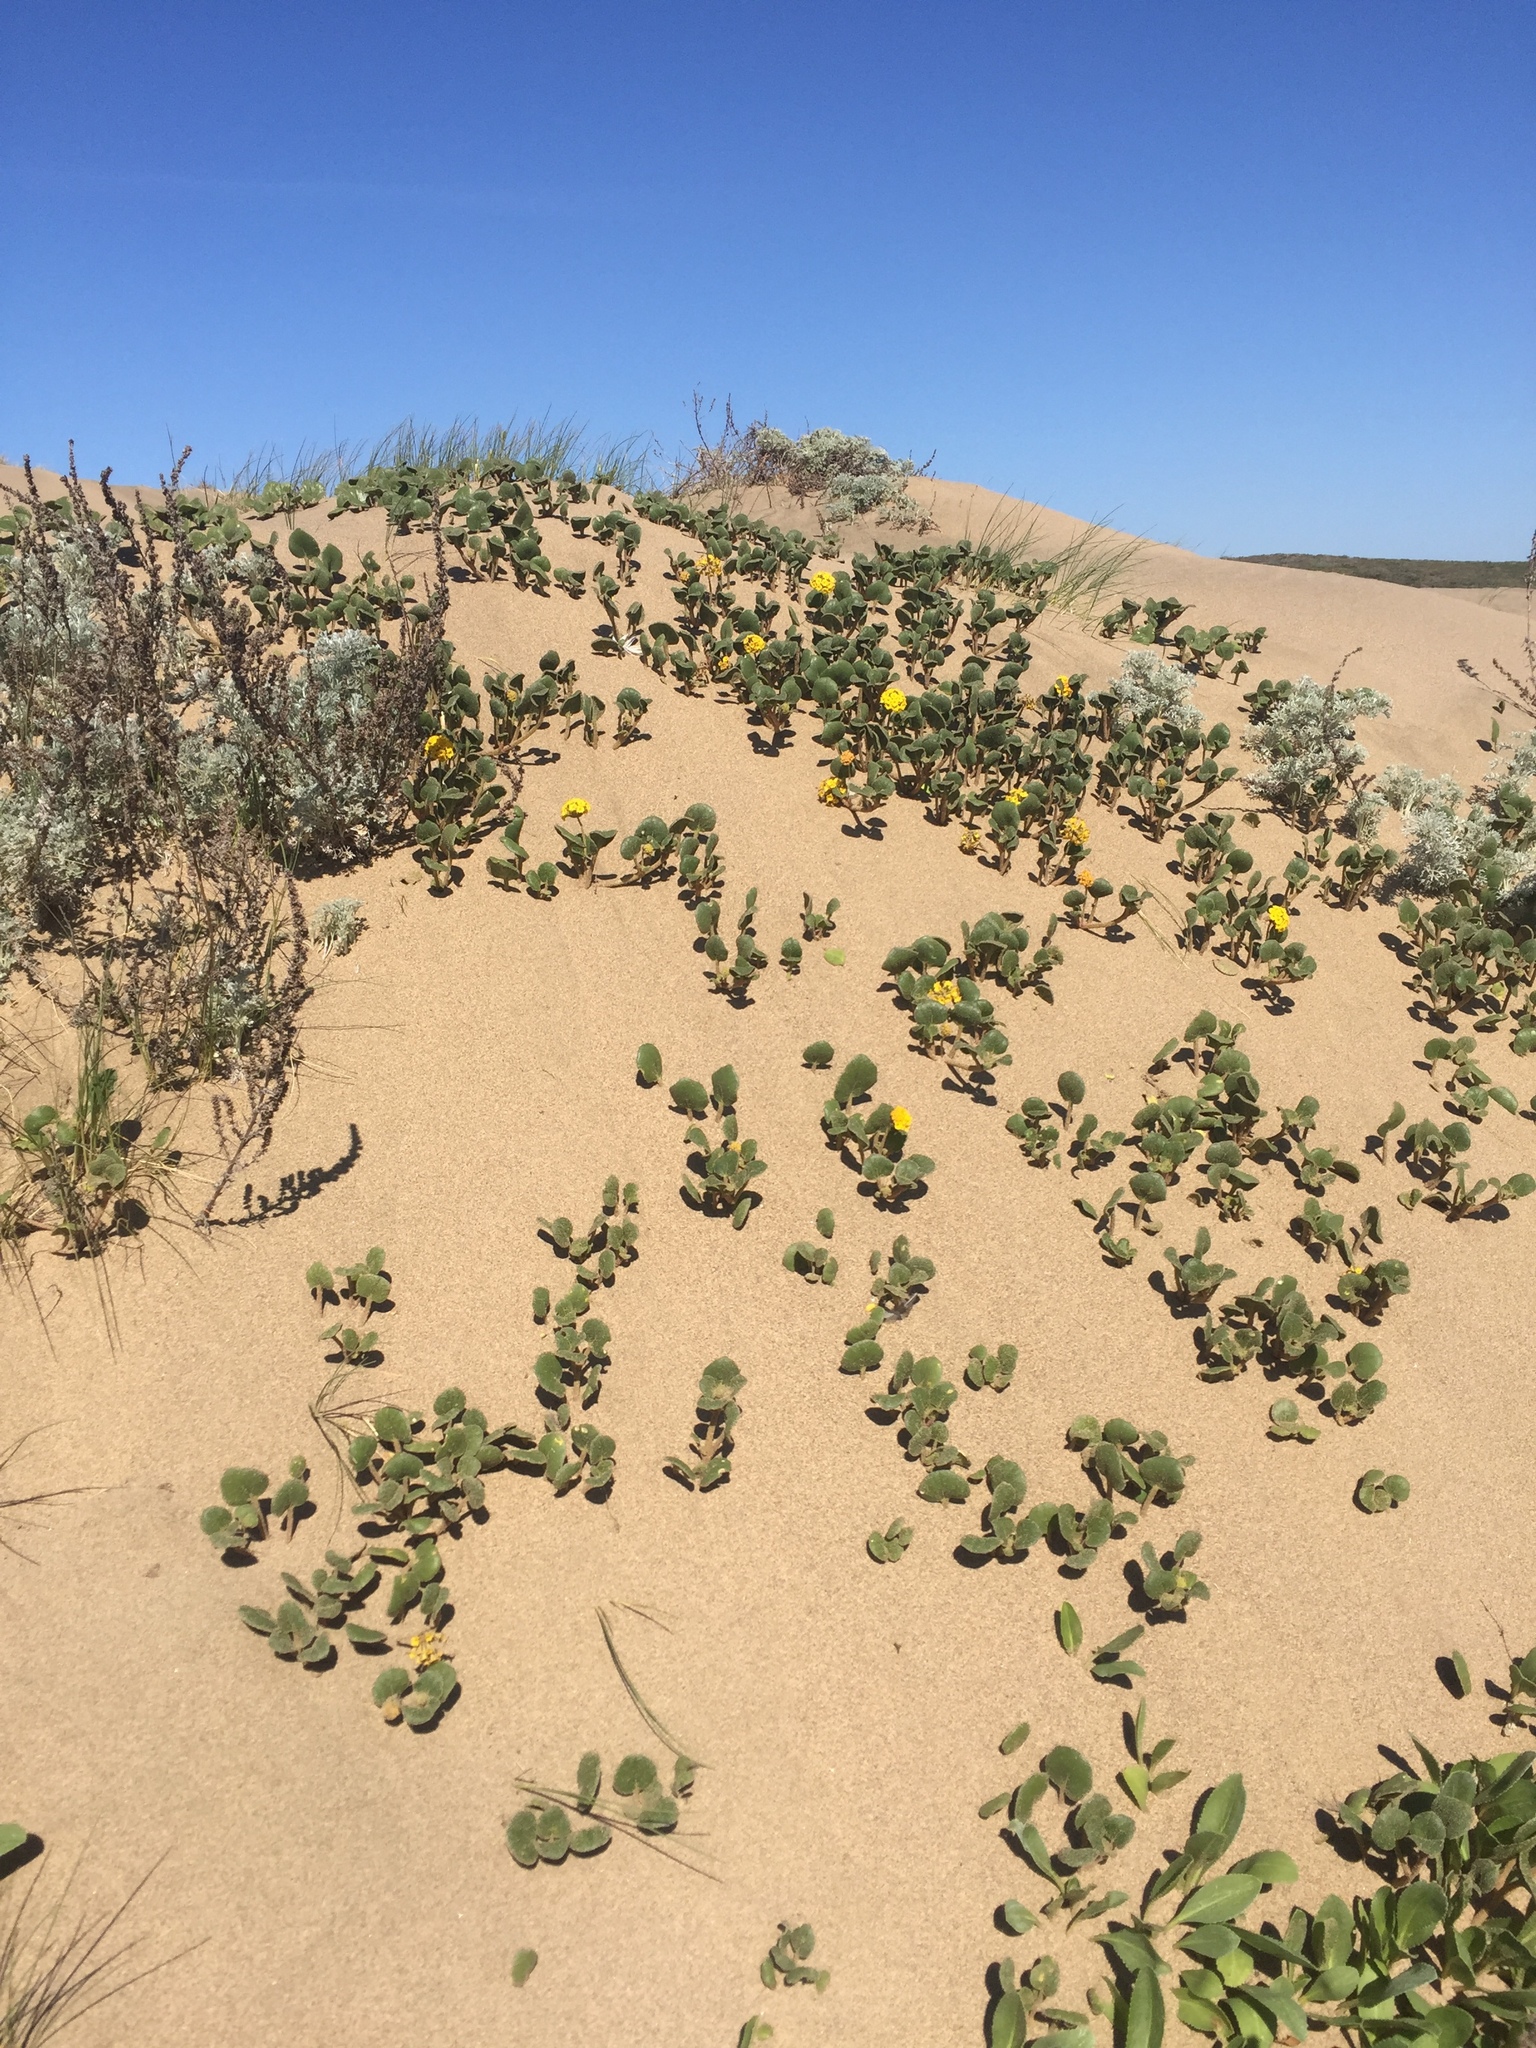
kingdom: Plantae
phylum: Tracheophyta
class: Magnoliopsida
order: Caryophyllales
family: Nyctaginaceae
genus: Abronia
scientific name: Abronia latifolia
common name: Yellow sand-verbena
